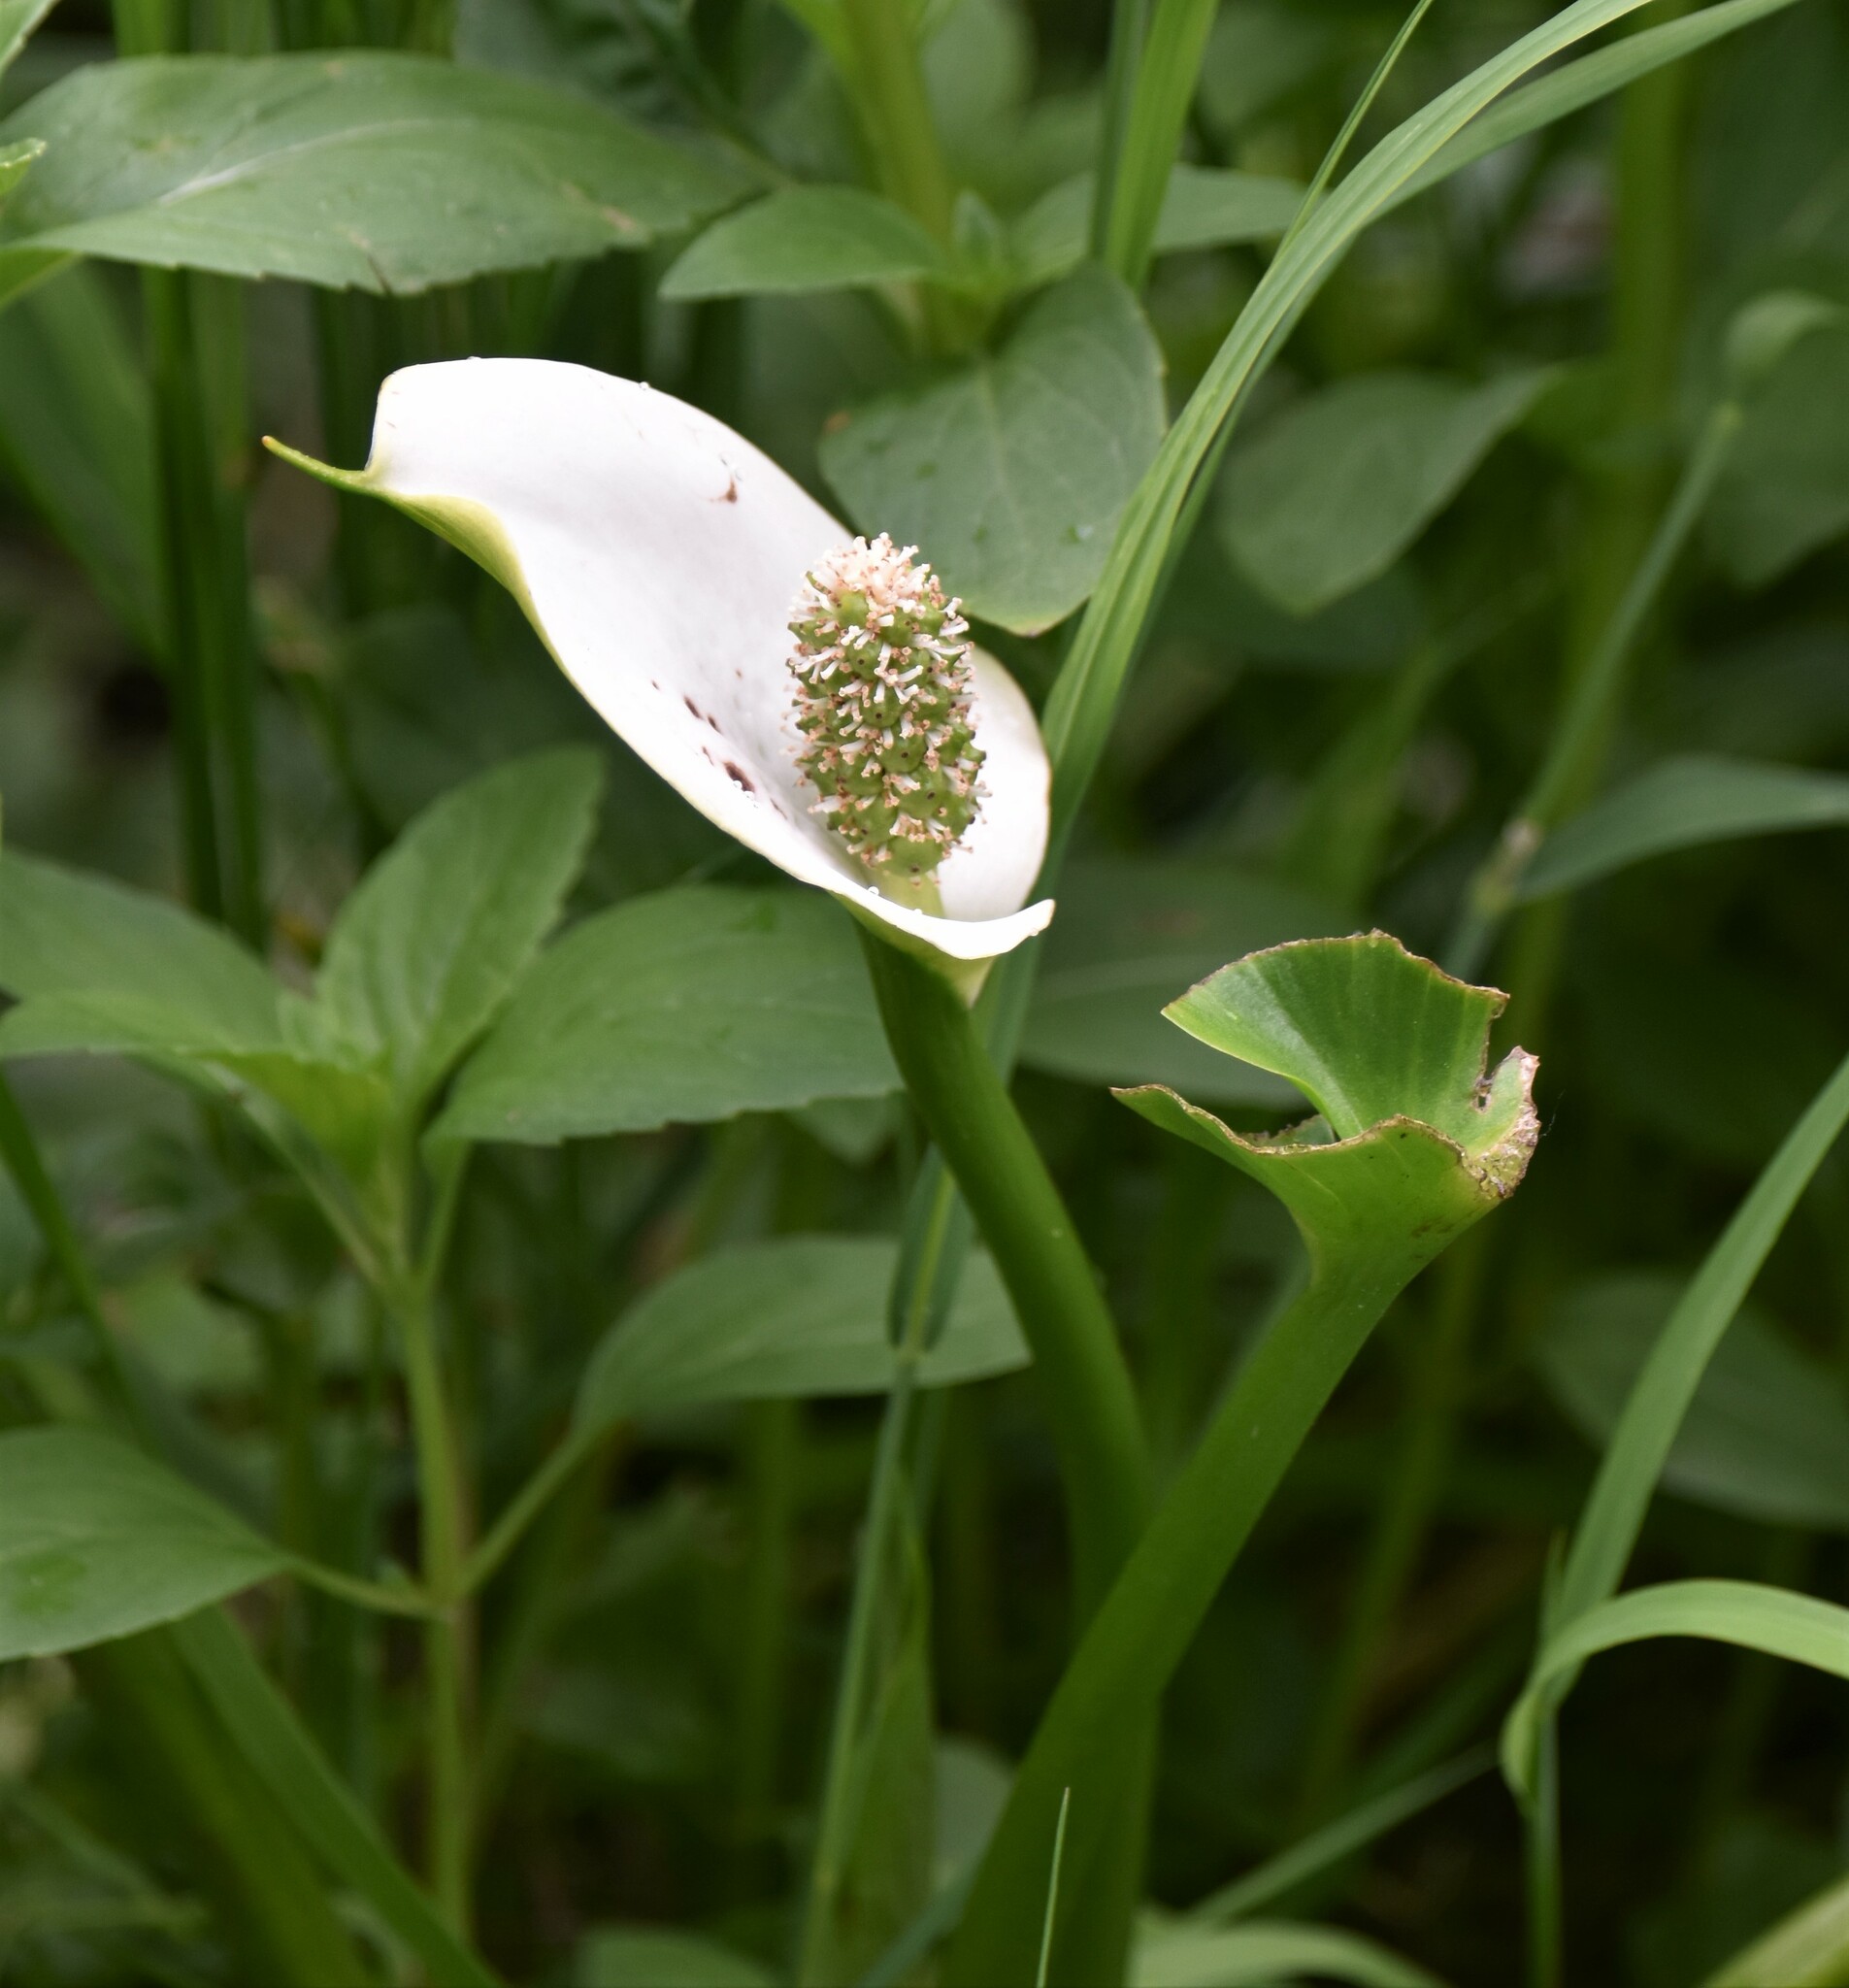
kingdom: Plantae
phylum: Tracheophyta
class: Liliopsida
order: Alismatales
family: Araceae
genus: Calla
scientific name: Calla palustris
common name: Bog arum
